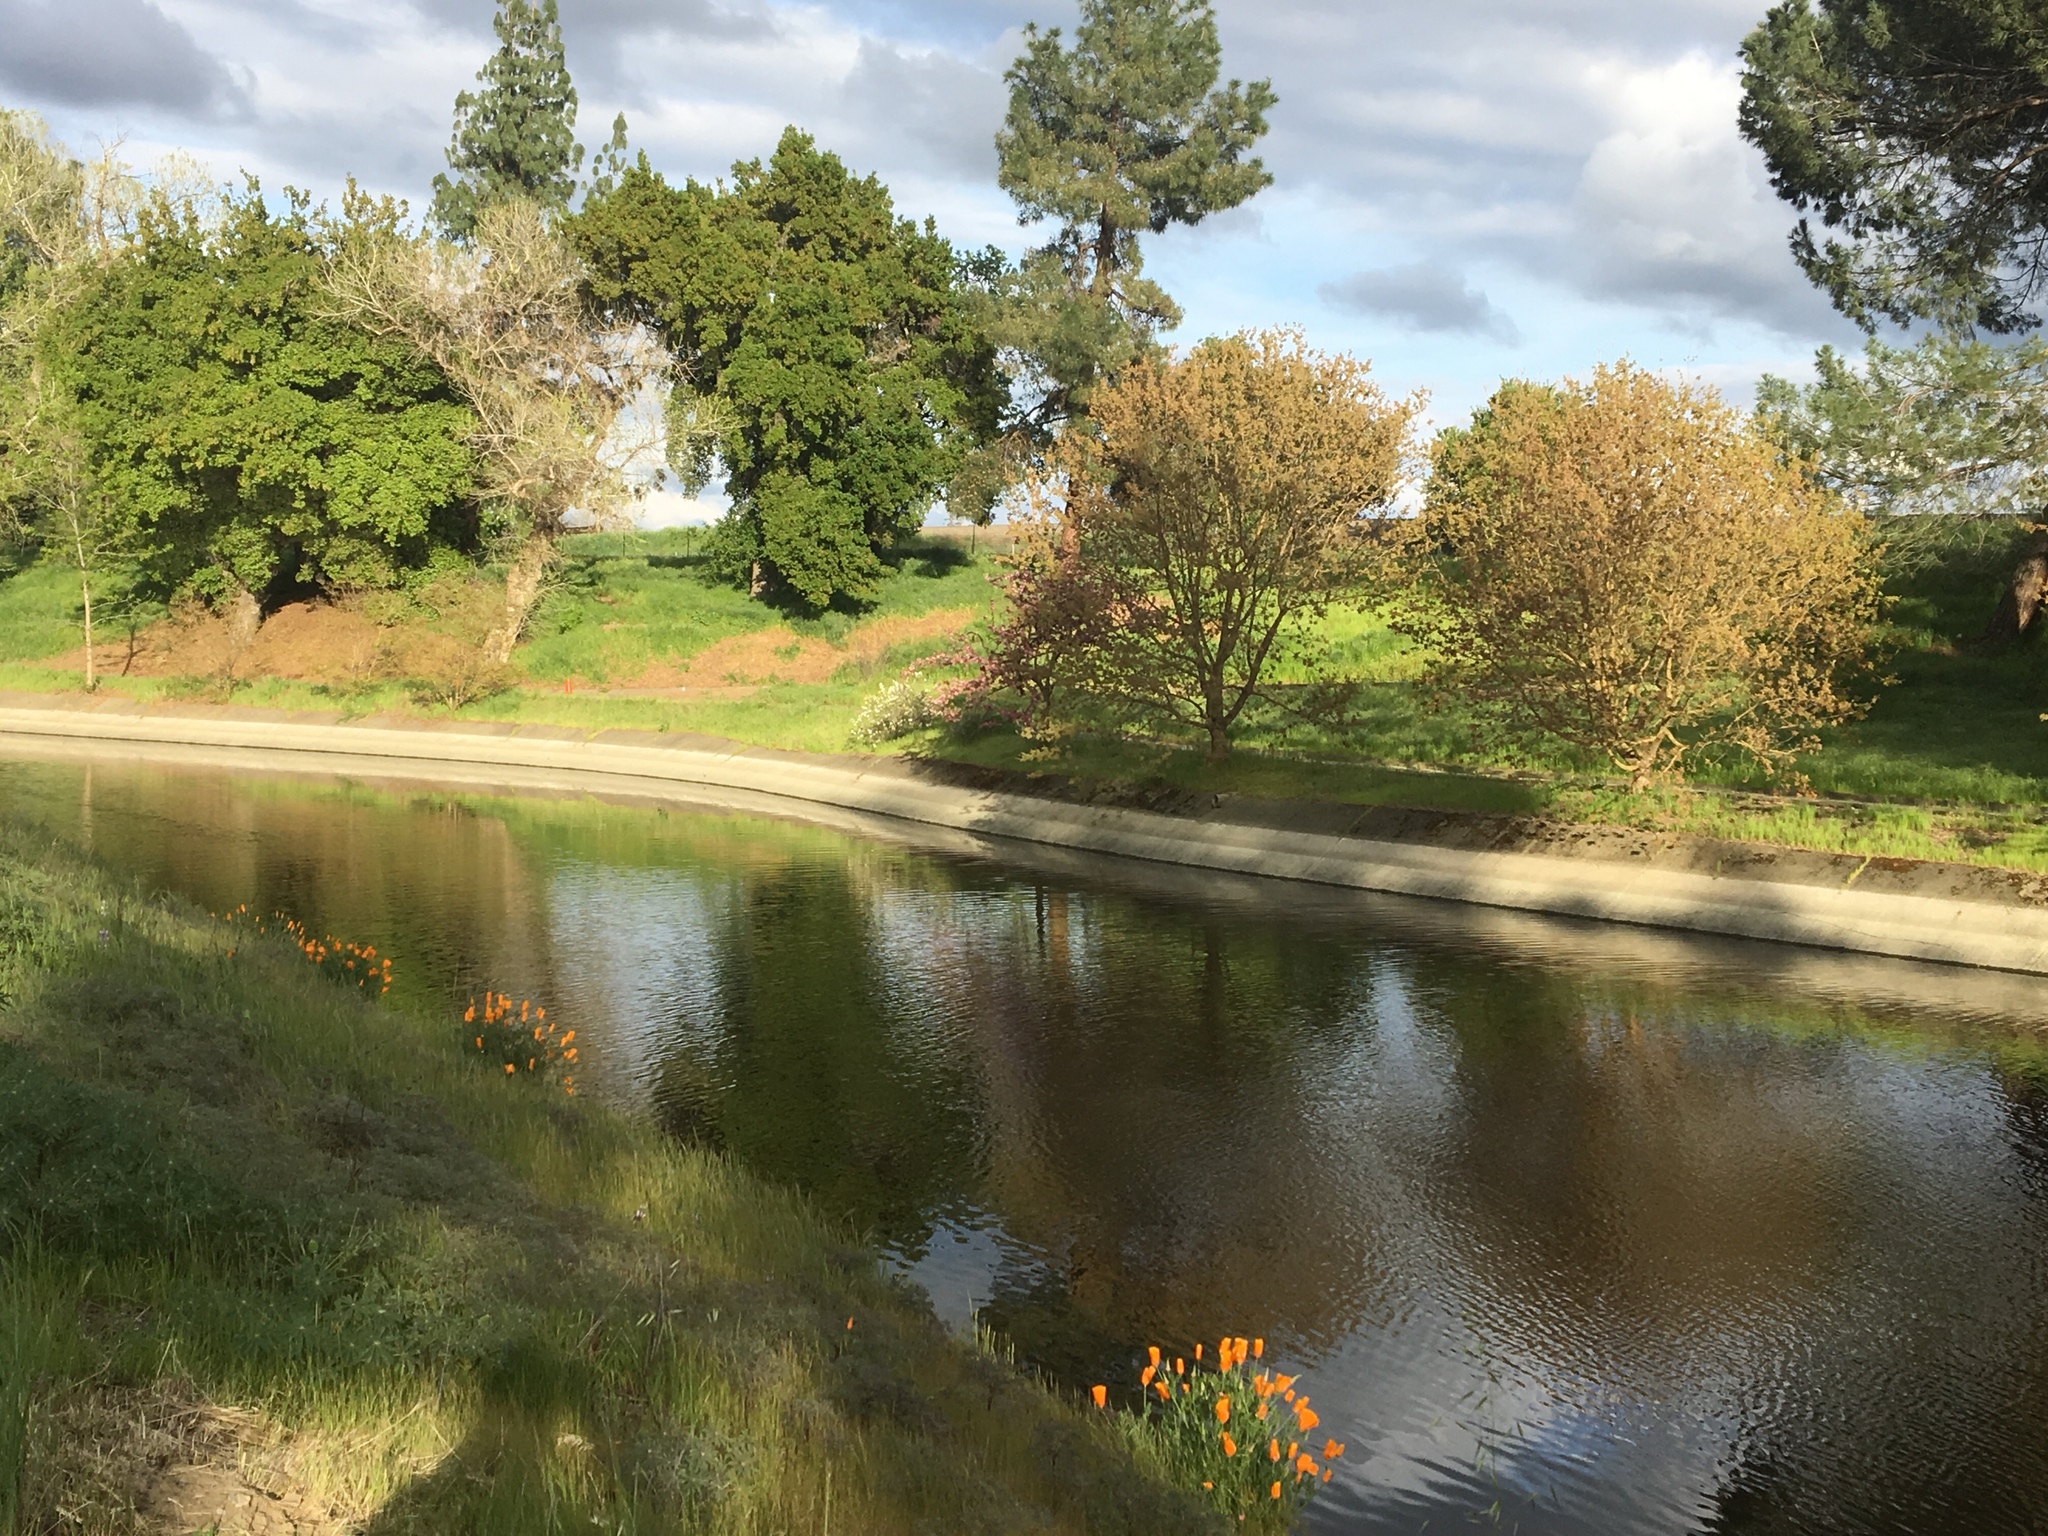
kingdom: Plantae
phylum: Tracheophyta
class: Magnoliopsida
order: Ranunculales
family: Papaveraceae
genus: Eschscholzia
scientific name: Eschscholzia californica
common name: California poppy
